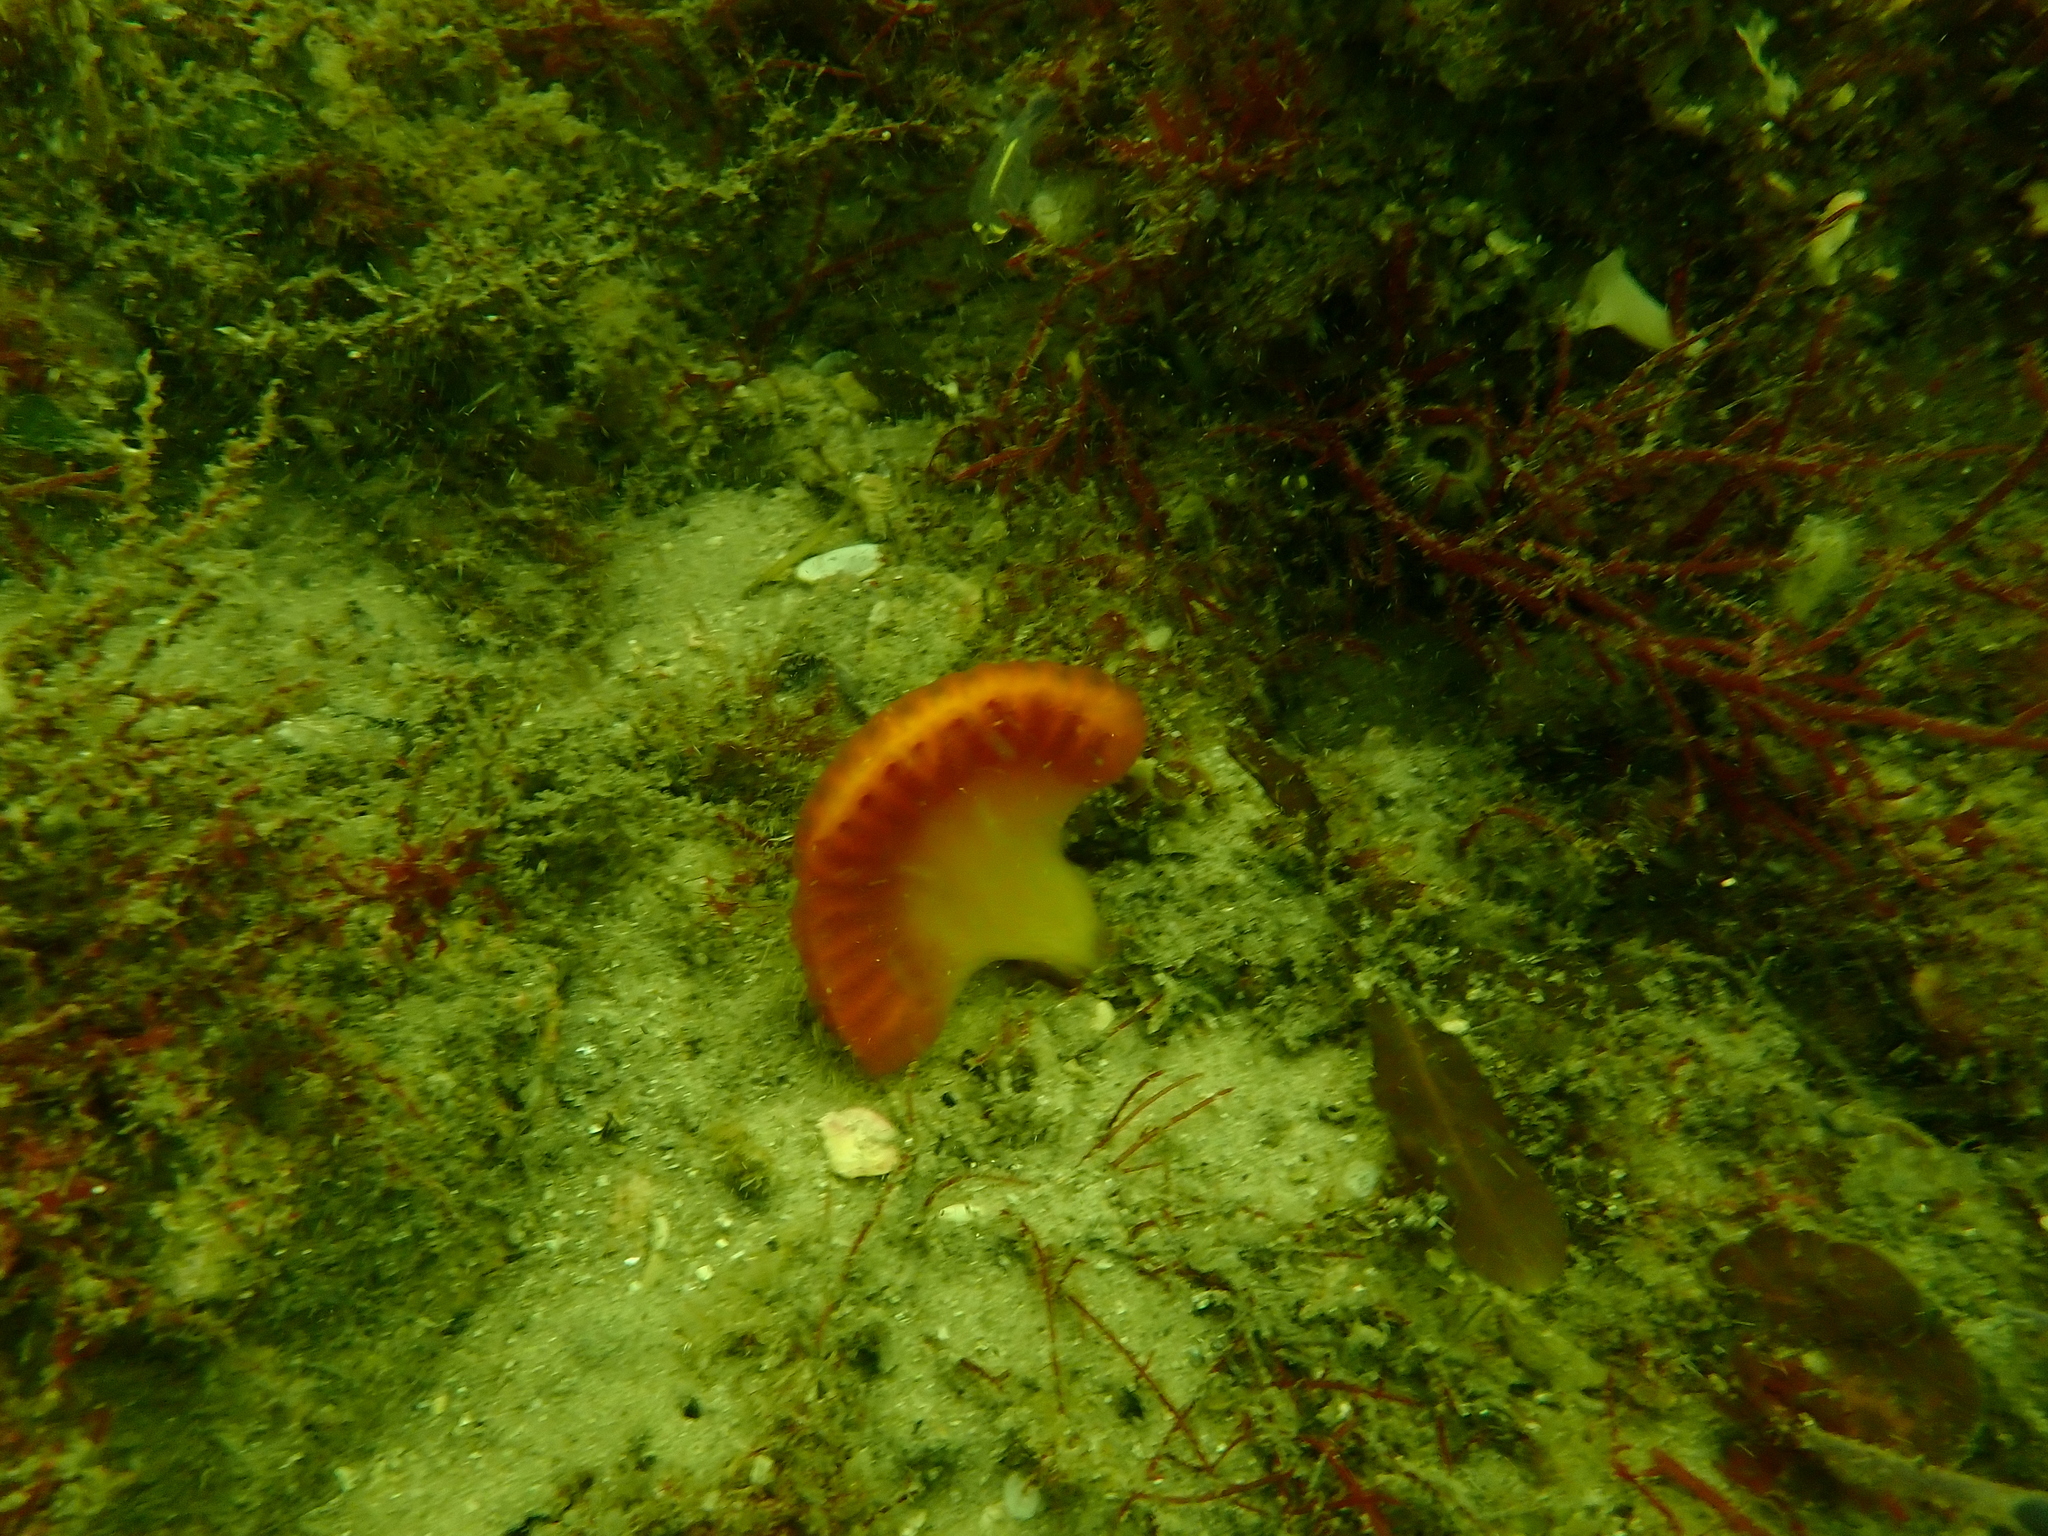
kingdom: Animalia
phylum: Chordata
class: Ascidiacea
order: Aplousobranchia
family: Holozoidae
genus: Sycozoa
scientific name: Sycozoa cerebriformis
